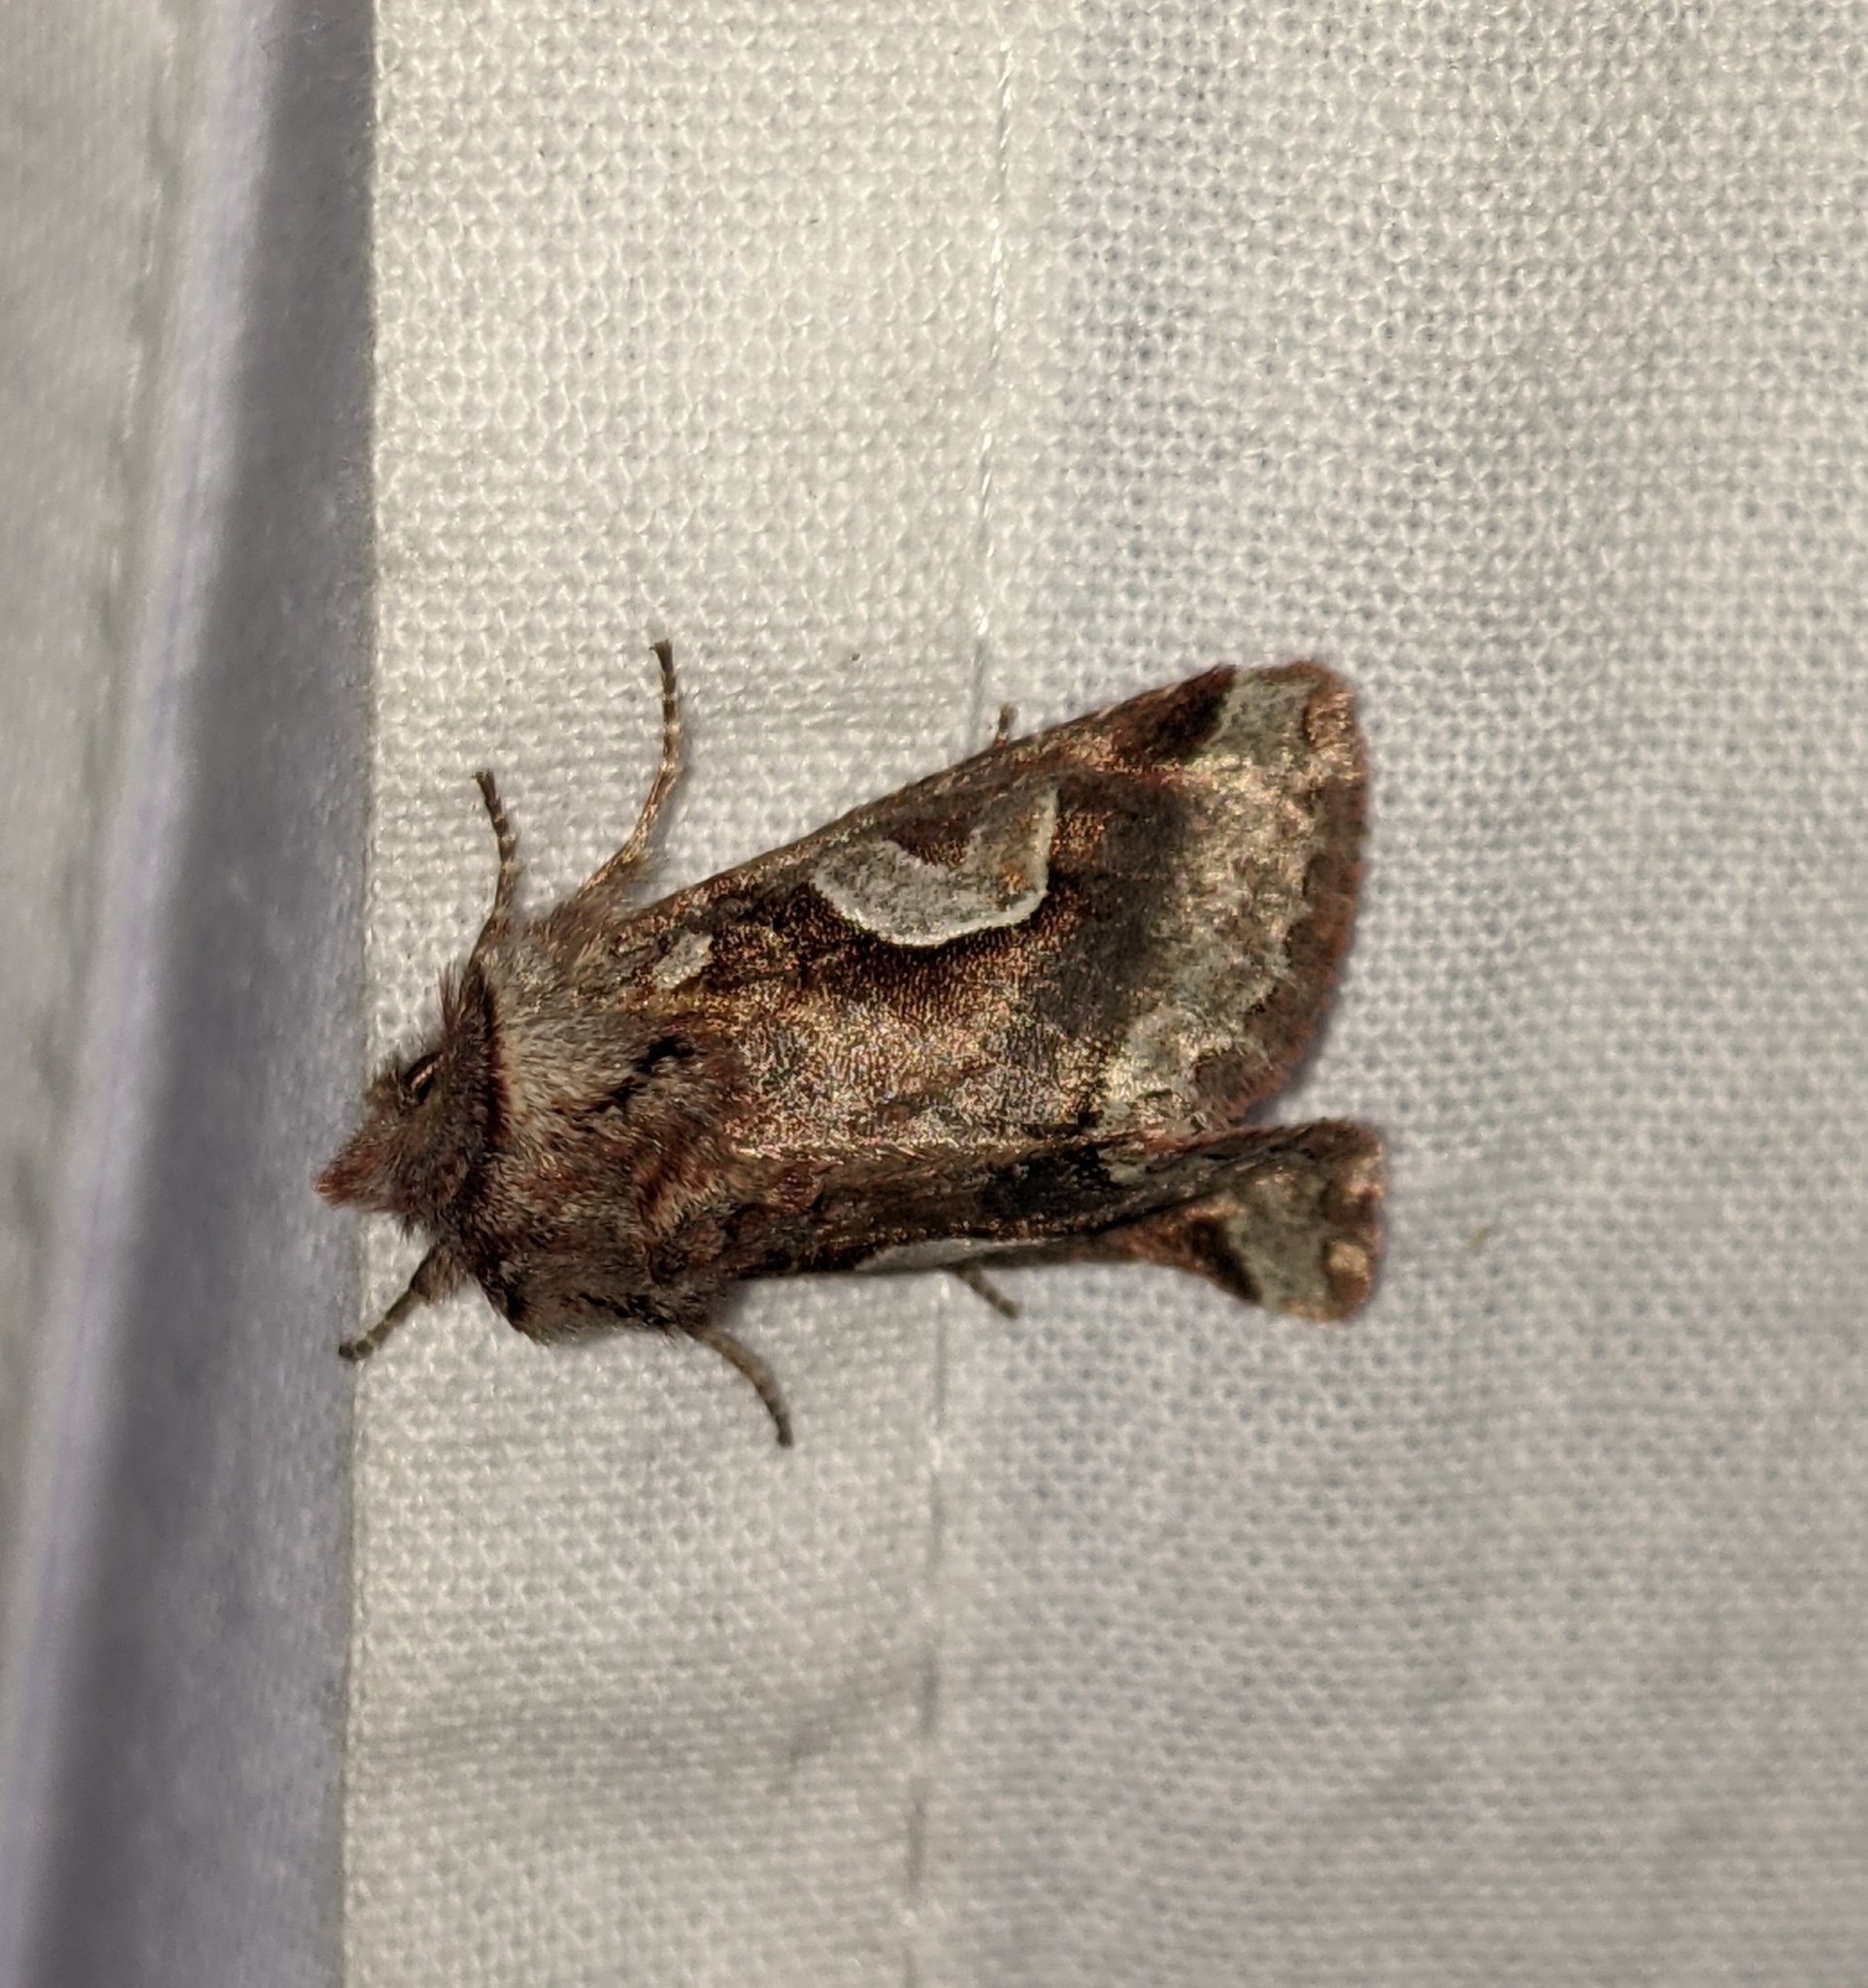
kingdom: Animalia
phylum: Arthropoda
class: Insecta
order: Lepidoptera
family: Noctuidae
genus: Stretchia
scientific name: Stretchia muricina
